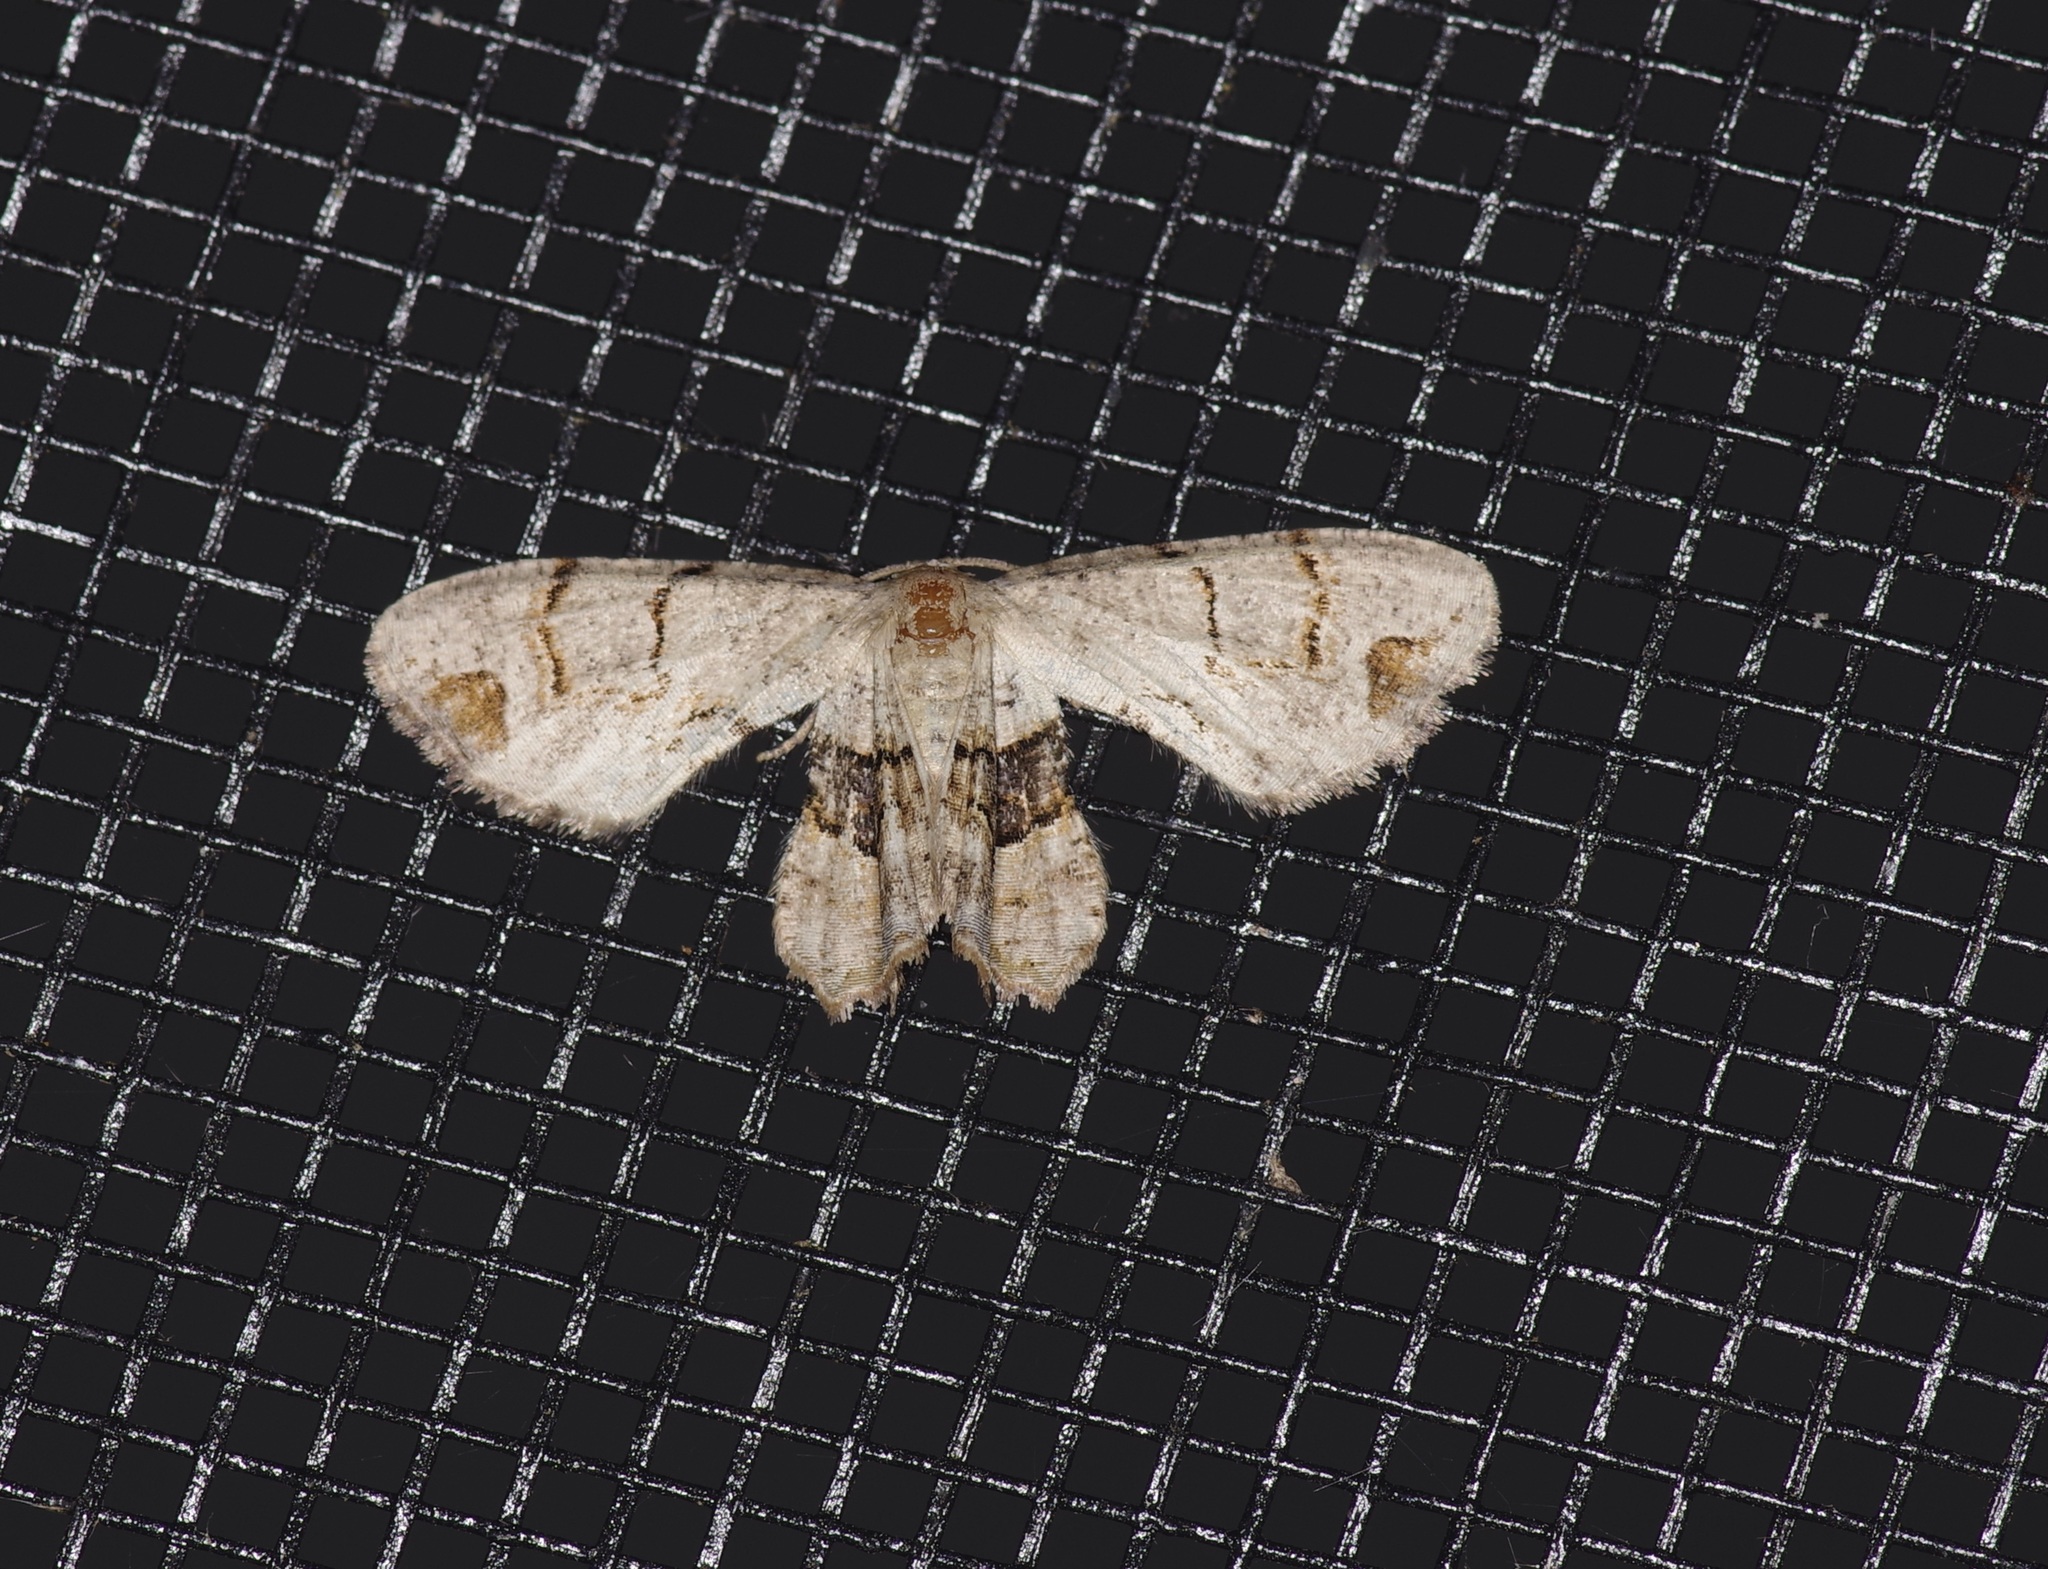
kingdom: Animalia
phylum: Arthropoda
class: Insecta
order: Lepidoptera
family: Uraniidae
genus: Epiplema
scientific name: Epiplema Callizzia amorata
